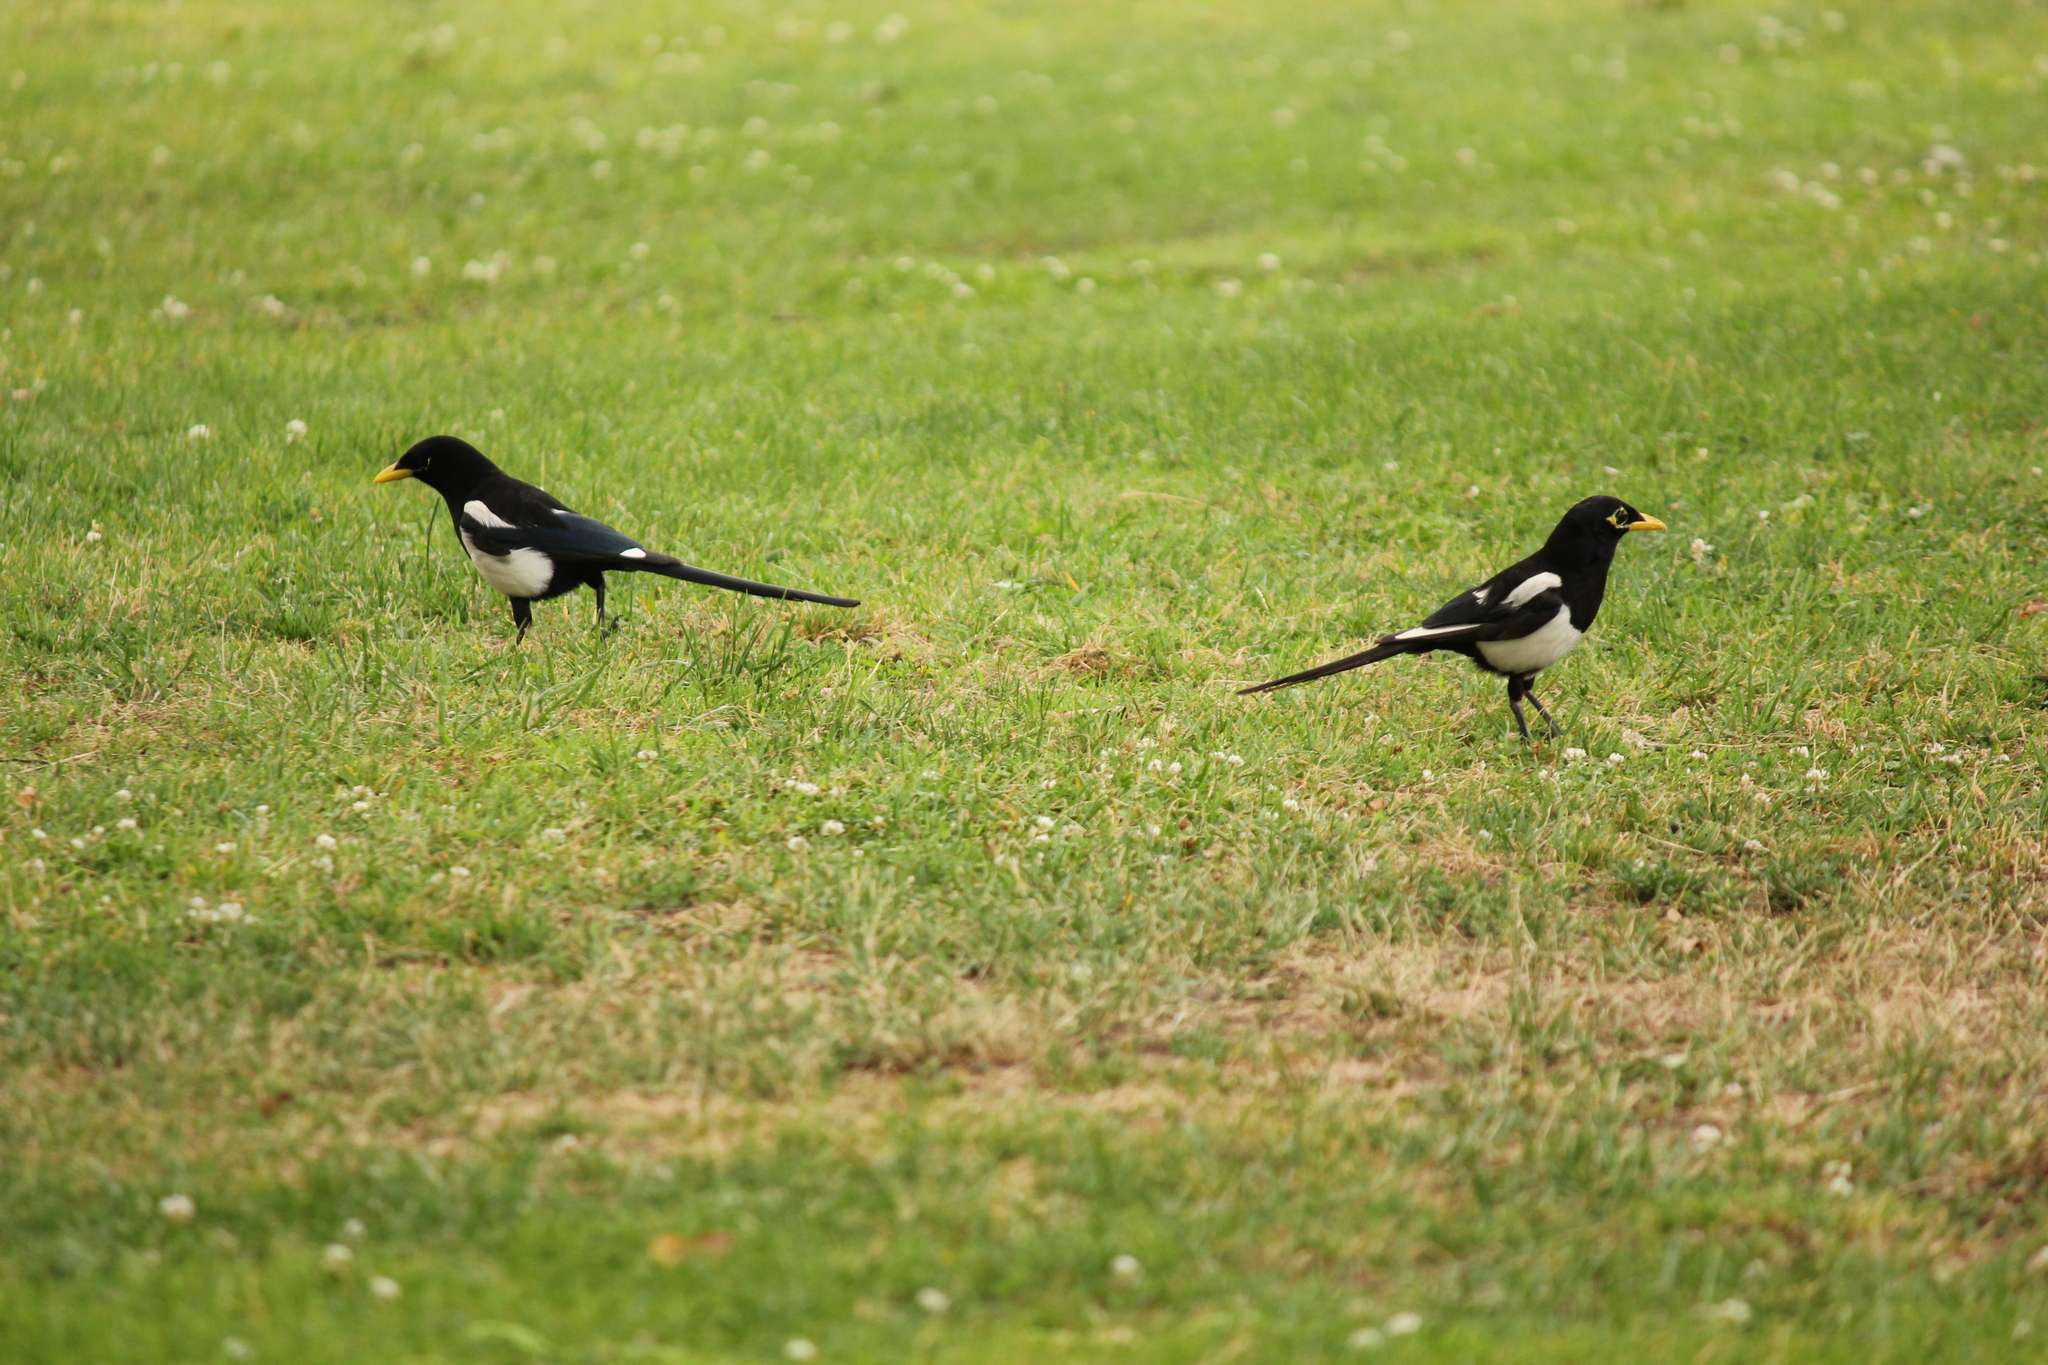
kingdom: Animalia
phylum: Chordata
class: Aves
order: Passeriformes
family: Corvidae
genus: Pica
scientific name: Pica nuttalli
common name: Yellow-billed magpie
